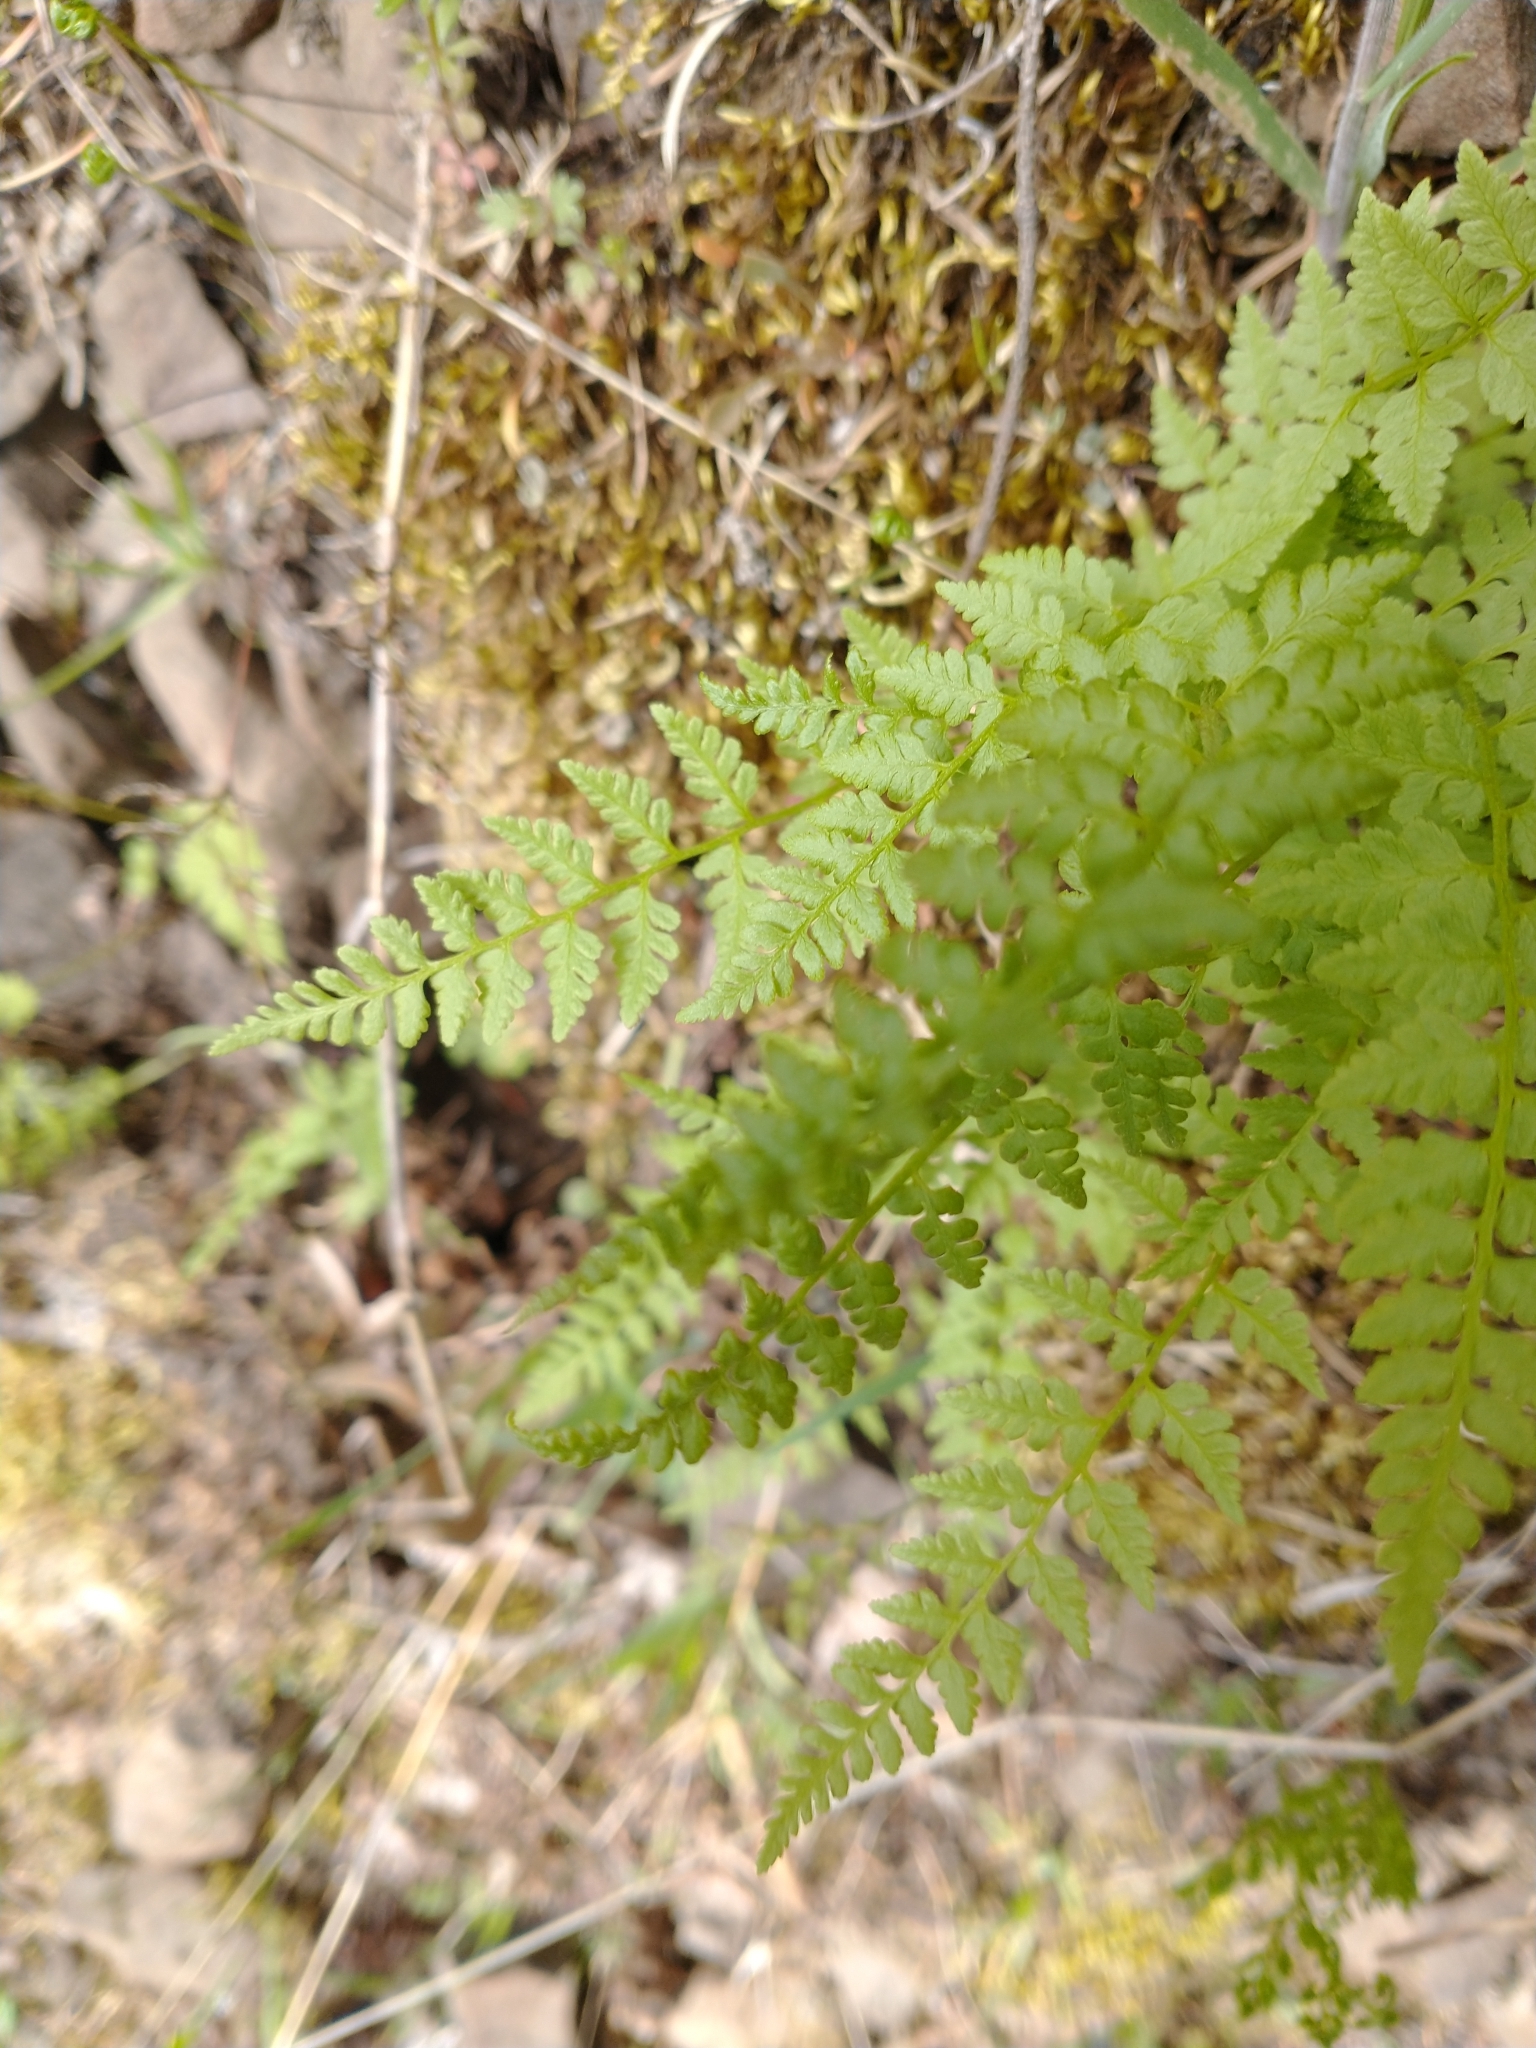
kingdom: Plantae
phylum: Tracheophyta
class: Polypodiopsida
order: Polypodiales
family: Cystopteridaceae
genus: Cystopteris
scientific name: Cystopteris fragilis
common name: Brittle bladder fern
